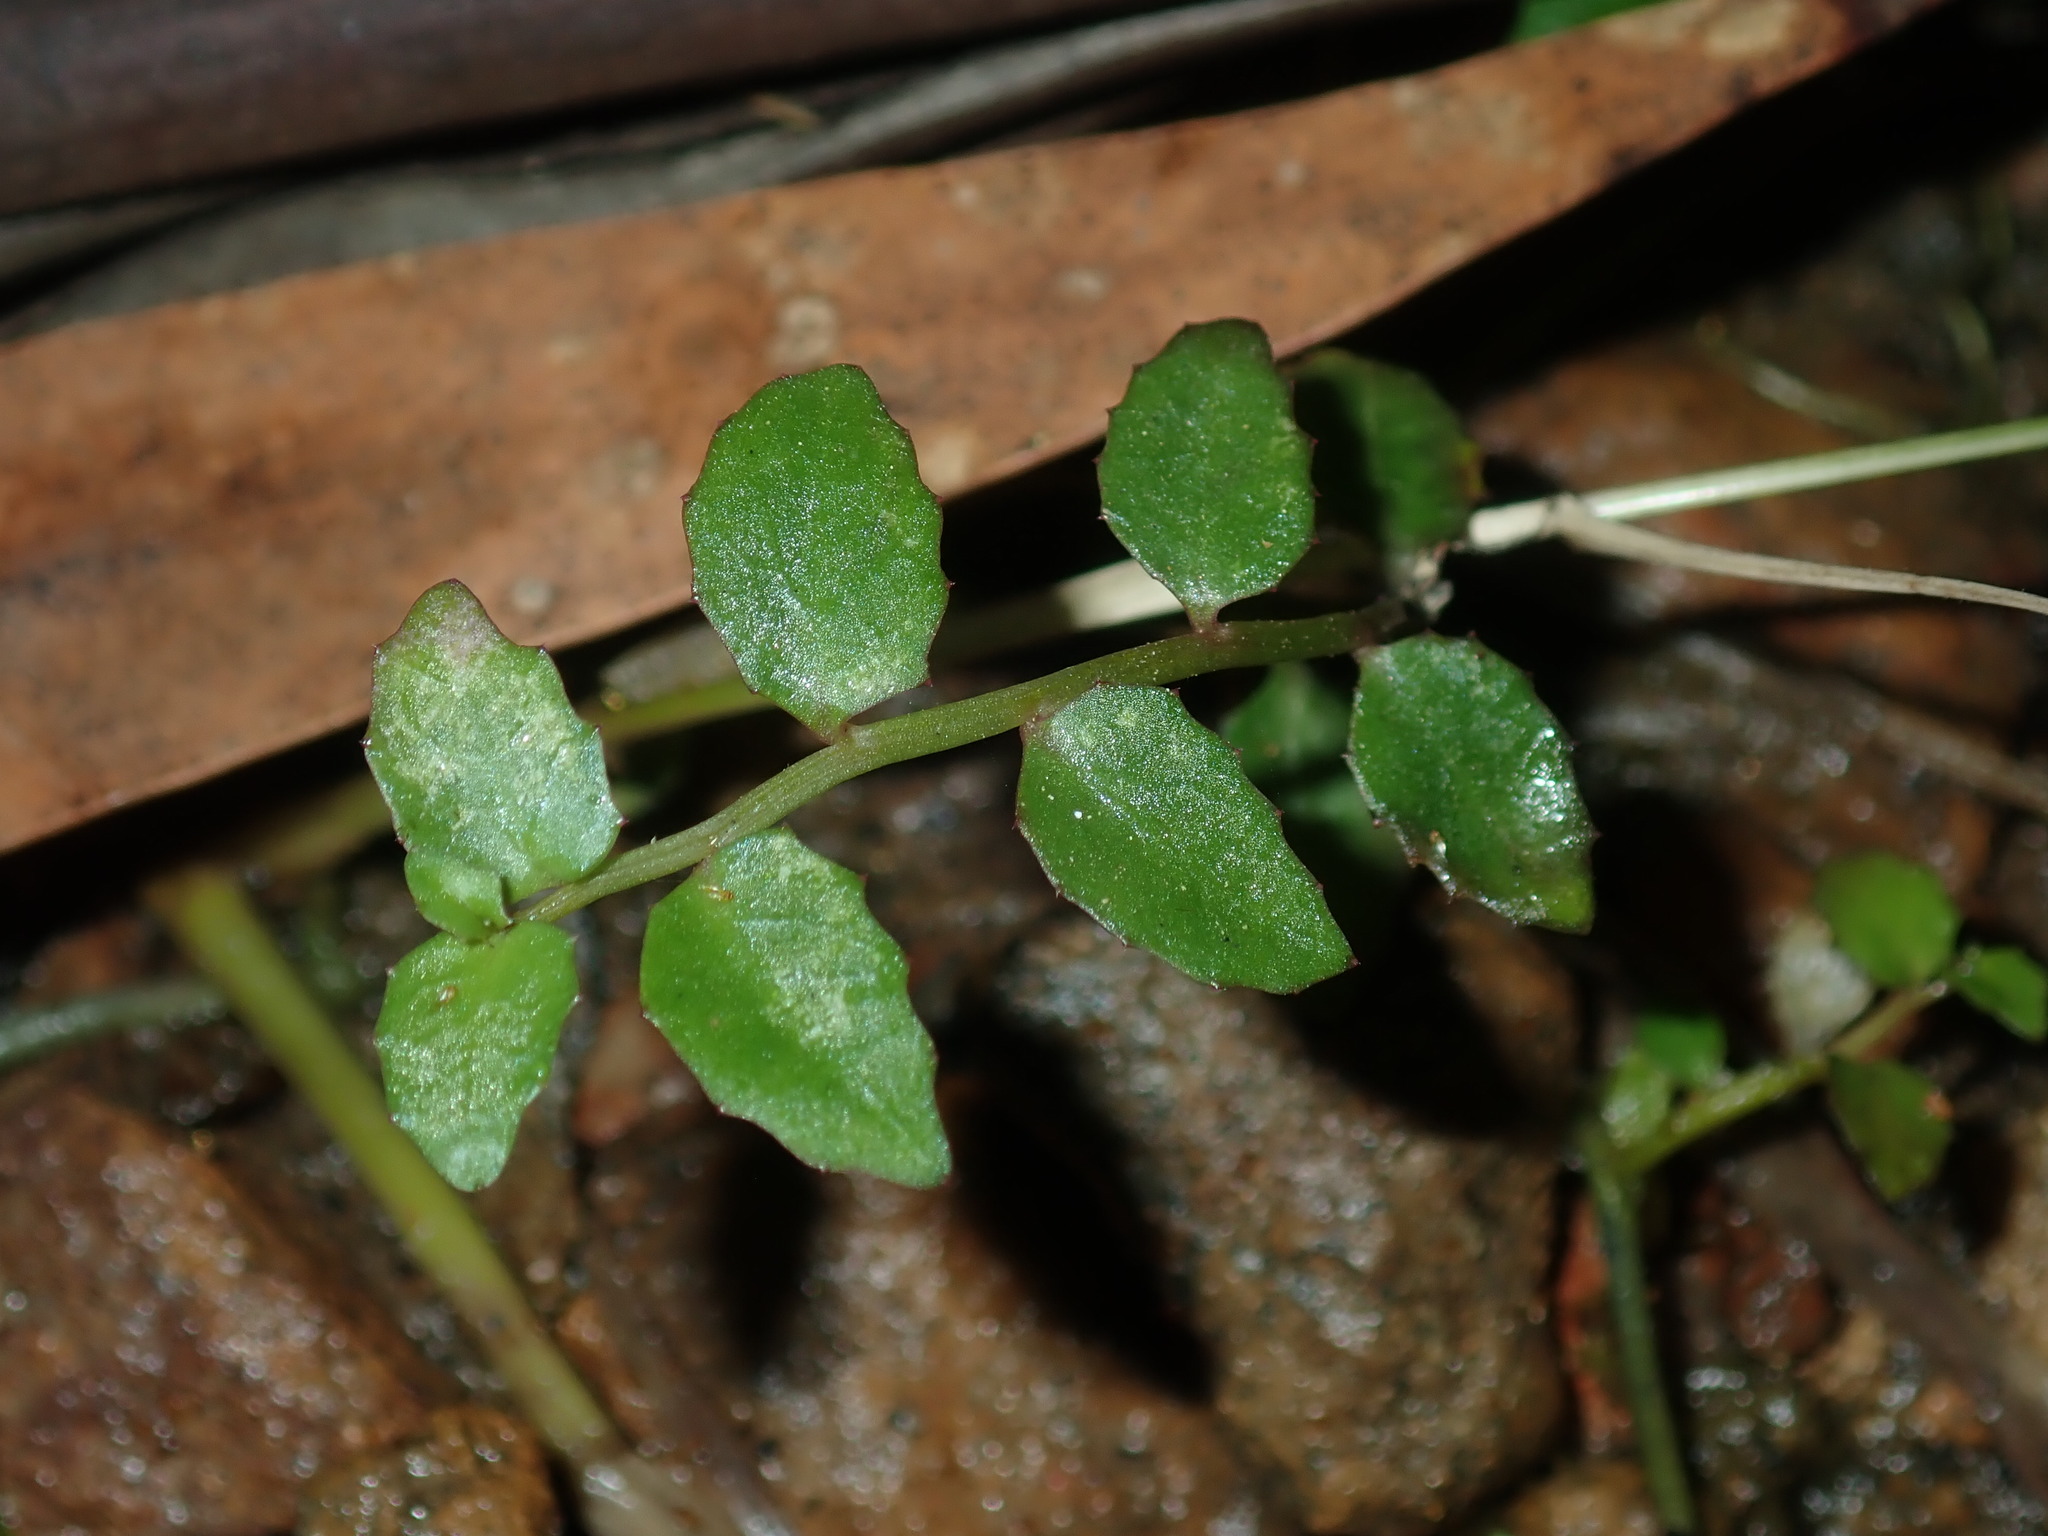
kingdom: Plantae
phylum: Tracheophyta
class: Magnoliopsida
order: Asterales
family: Campanulaceae
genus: Lobelia
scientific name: Lobelia purpurascens
